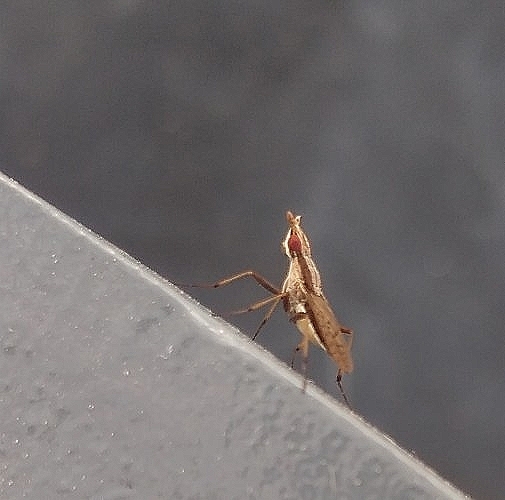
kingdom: Animalia
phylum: Arthropoda
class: Insecta
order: Diptera
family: Neriidae
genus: Eoneria
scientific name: Eoneria maldonadoi
